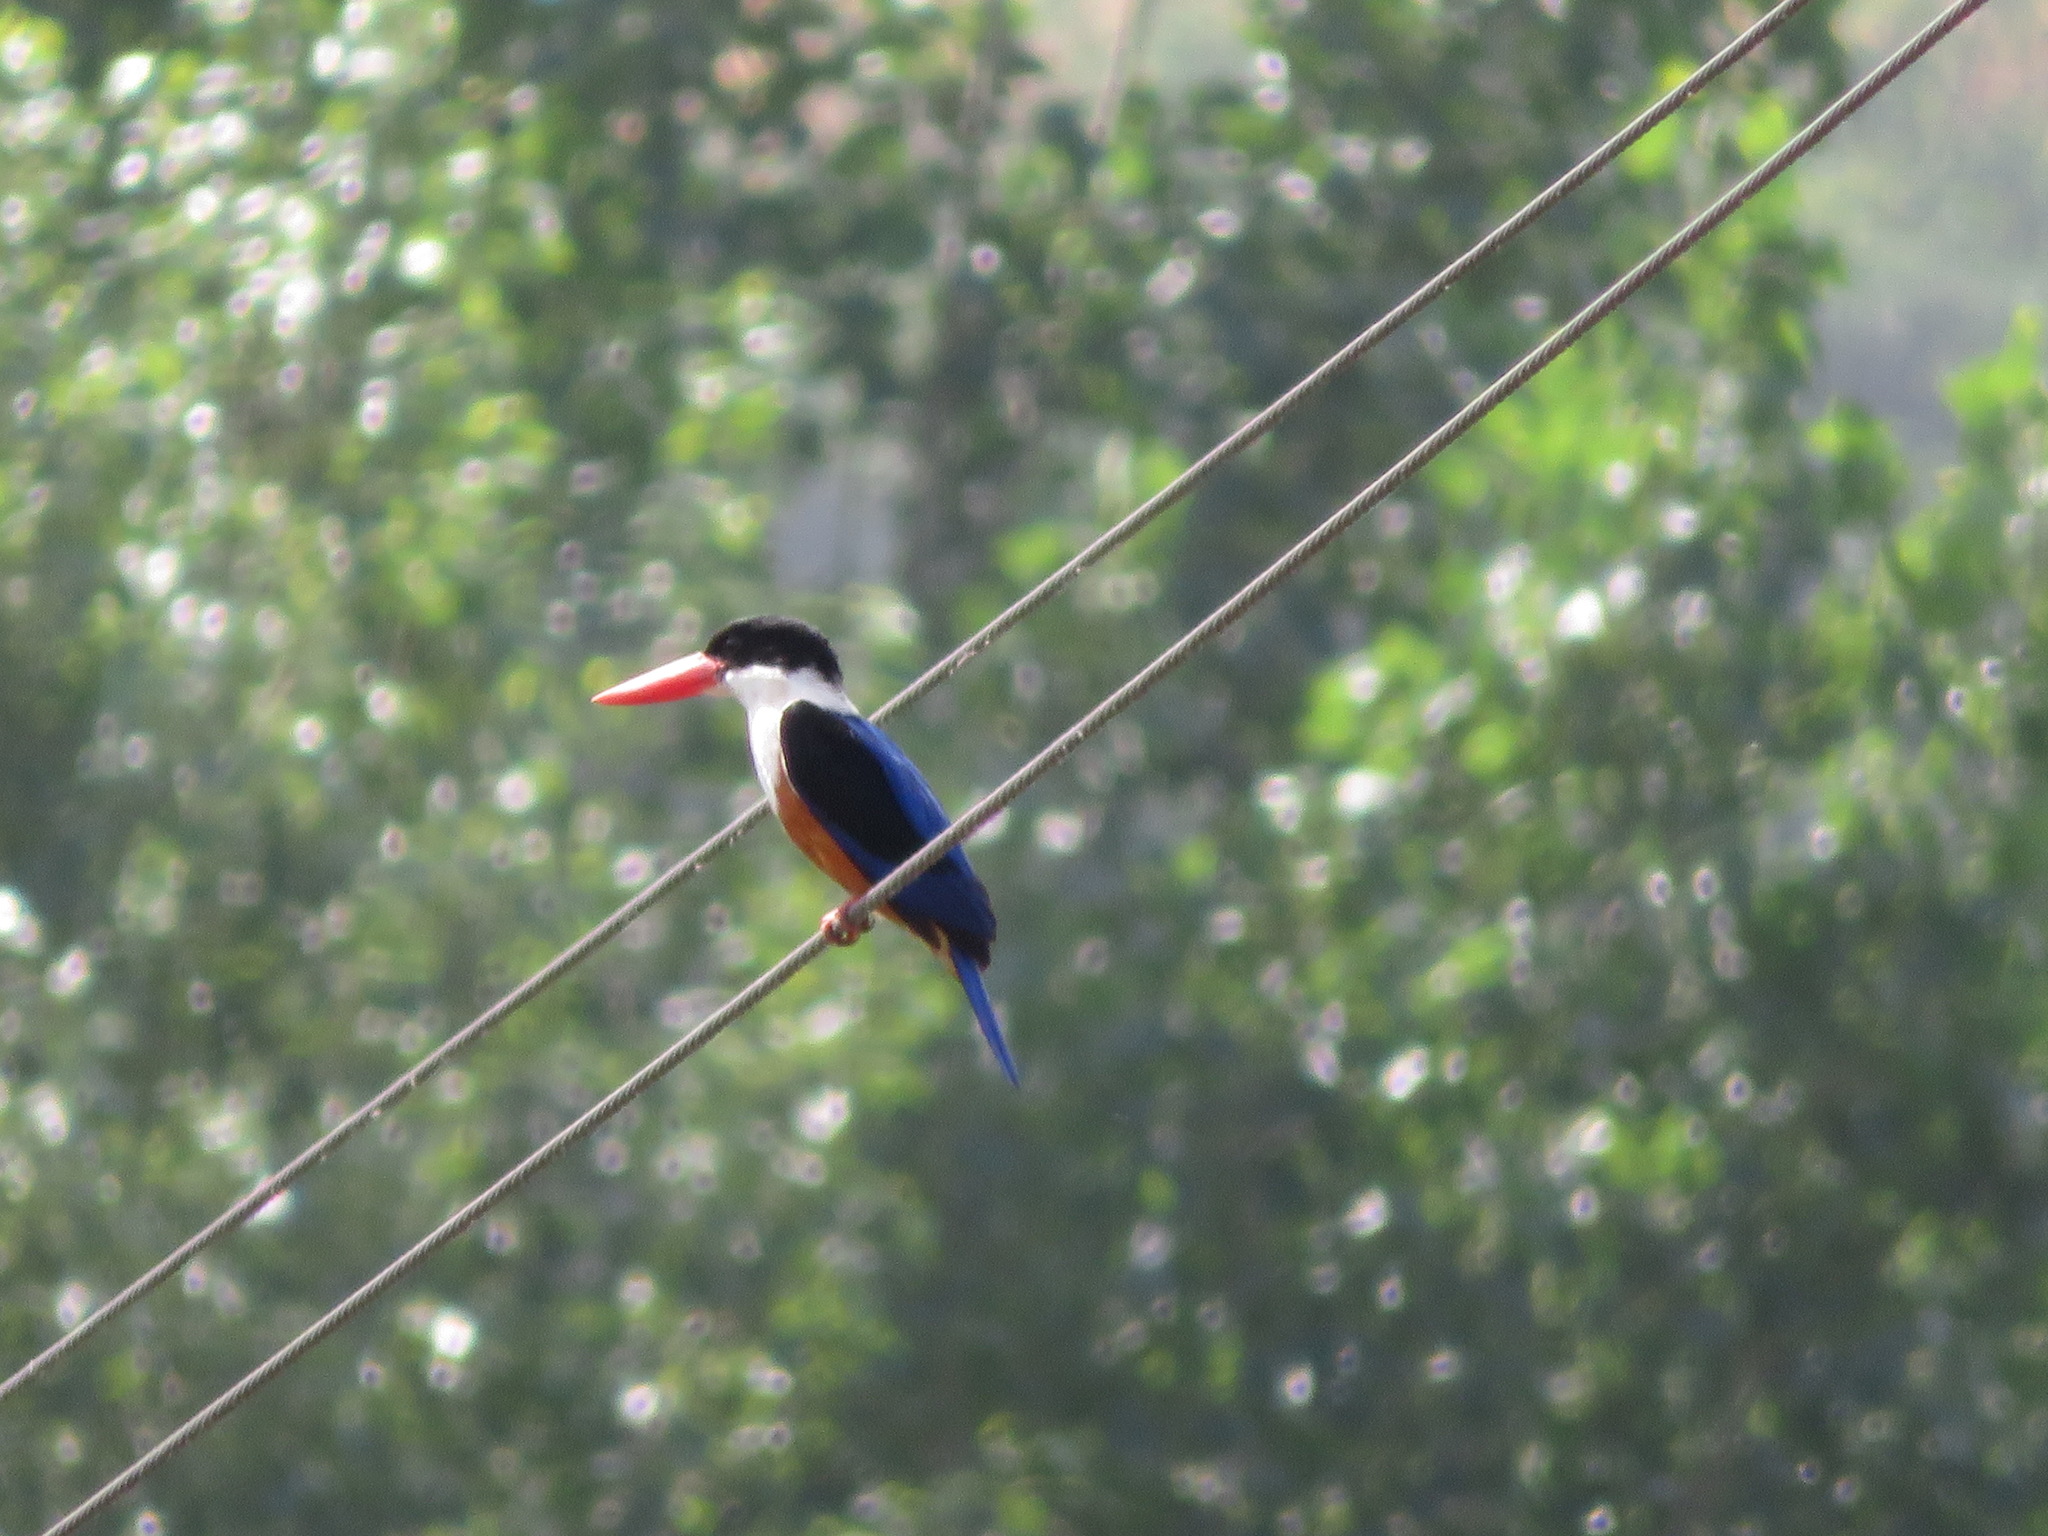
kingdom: Animalia
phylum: Chordata
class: Aves
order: Coraciiformes
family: Alcedinidae
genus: Halcyon
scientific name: Halcyon pileata
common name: Black-capped kingfisher
